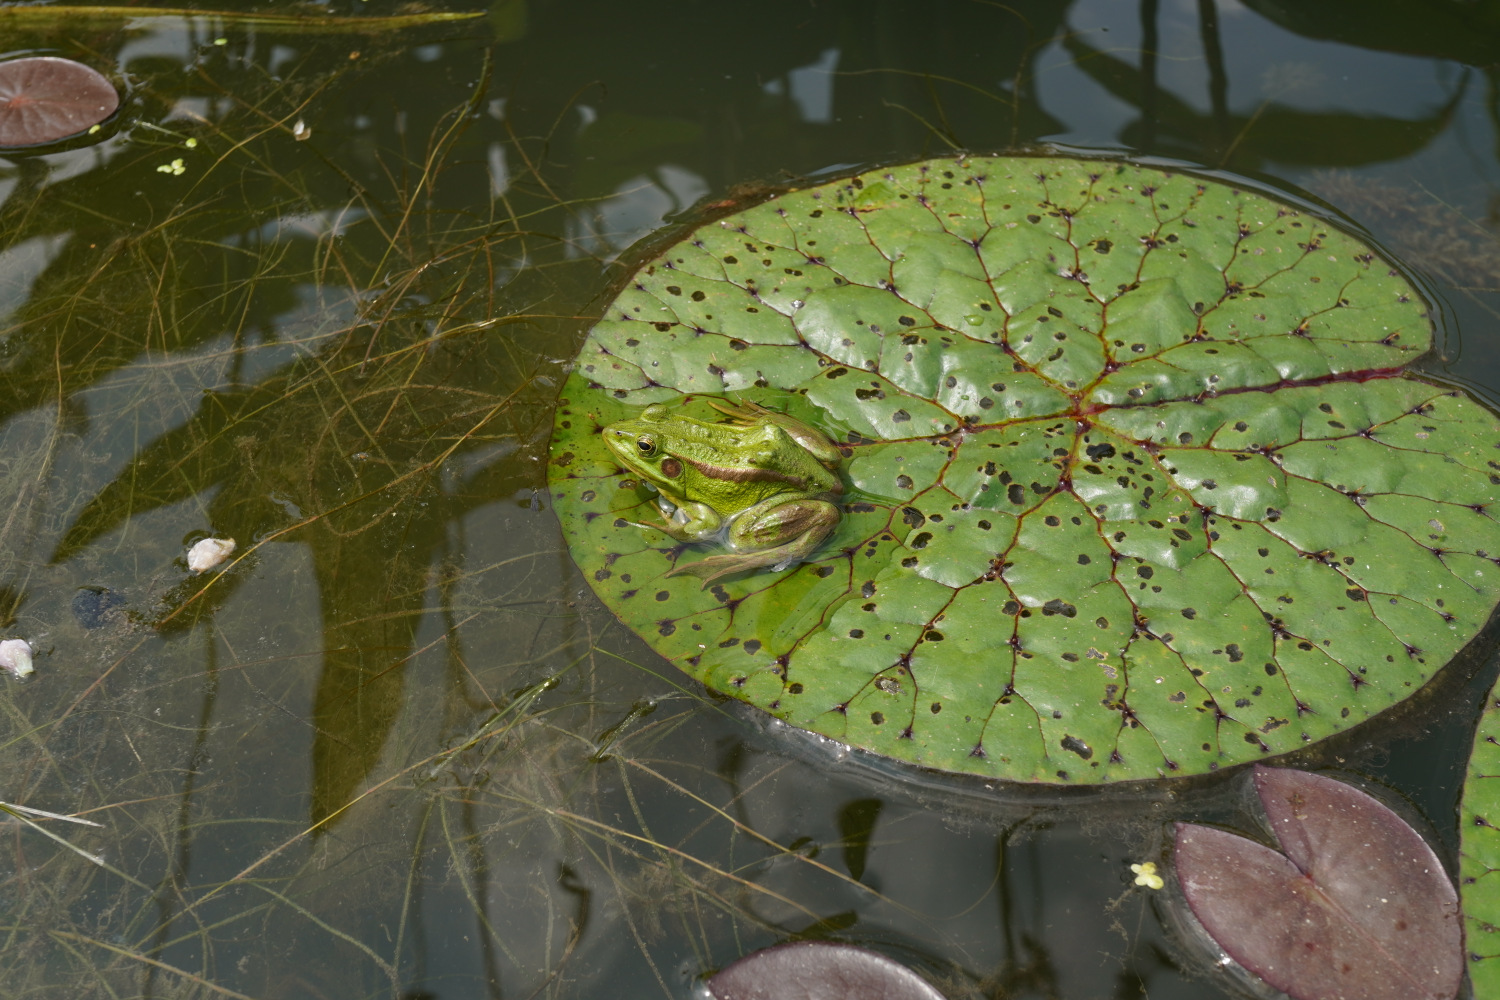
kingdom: Animalia
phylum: Chordata
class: Amphibia
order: Anura
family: Ranidae
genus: Pelophylax
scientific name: Pelophylax chosenicus
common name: Gold-spotted pond frog
